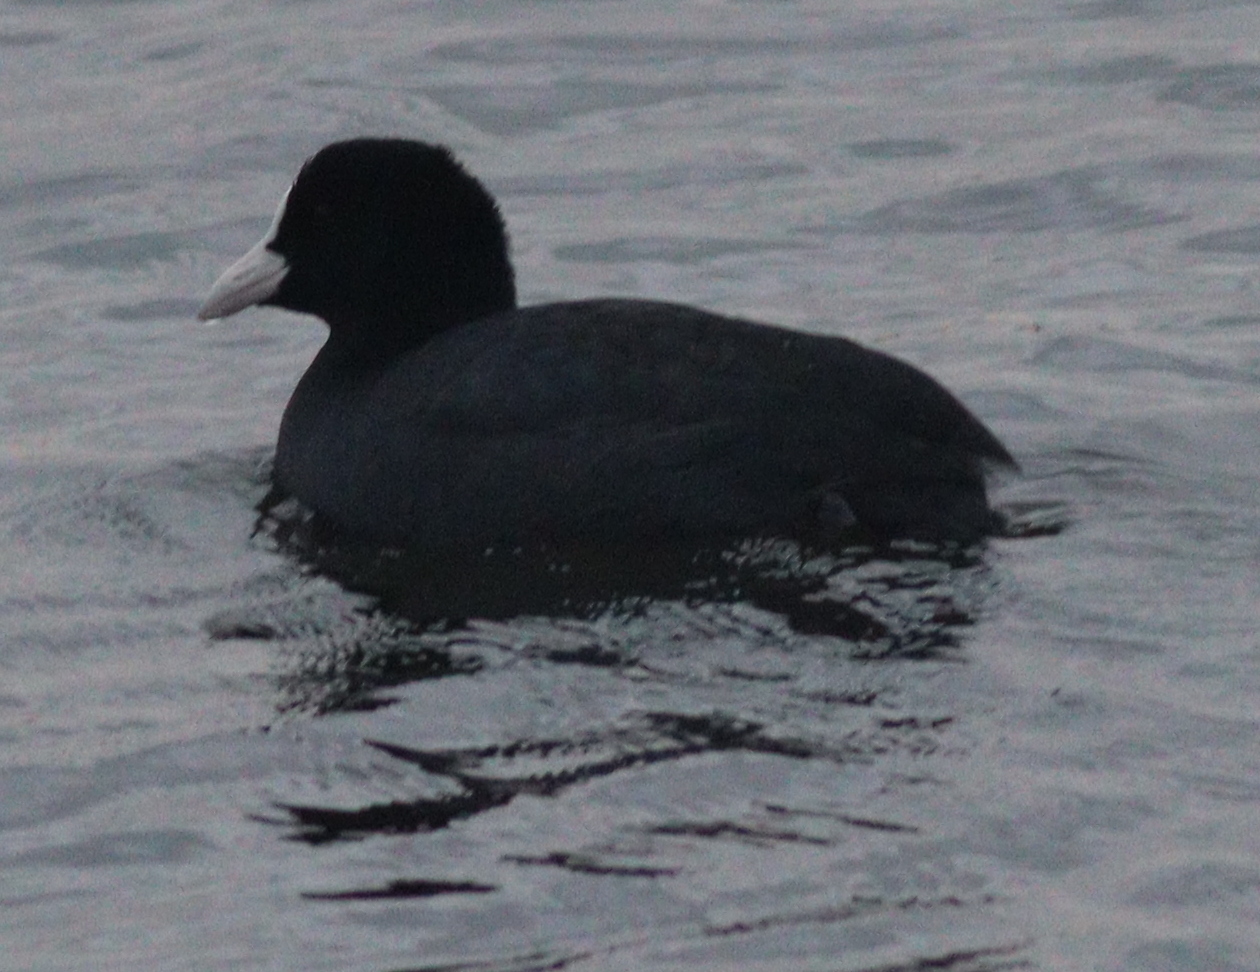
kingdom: Animalia
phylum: Chordata
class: Aves
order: Gruiformes
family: Rallidae
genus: Fulica
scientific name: Fulica atra
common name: Eurasian coot
